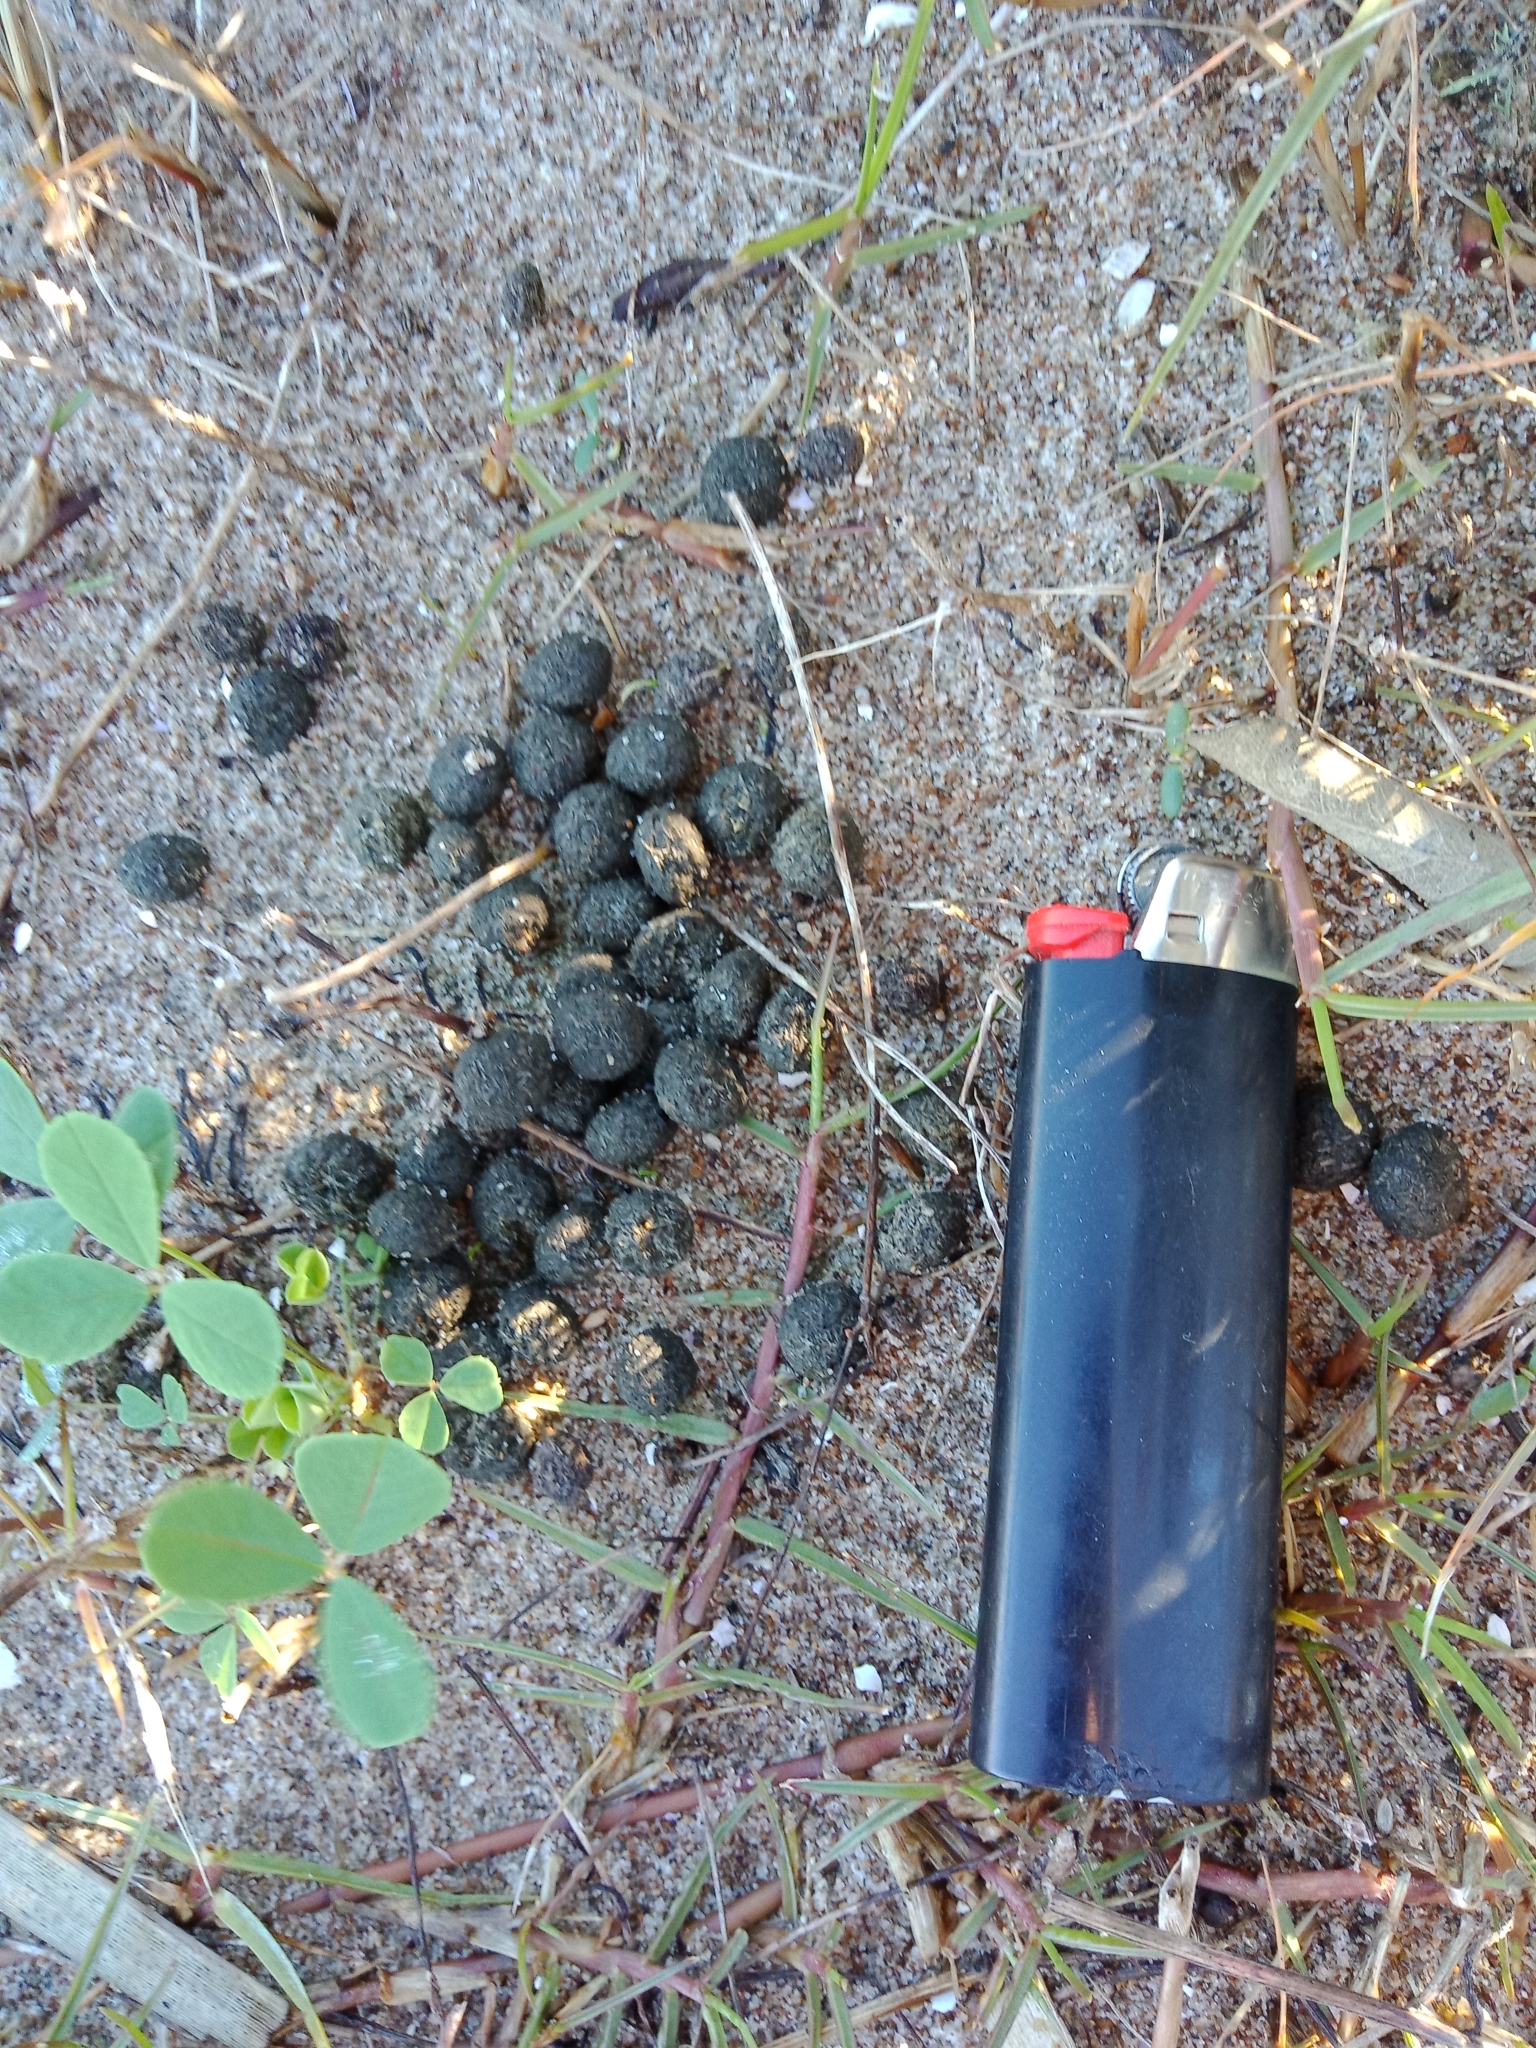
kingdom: Animalia
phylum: Chordata
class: Mammalia
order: Lagomorpha
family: Leporidae
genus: Oryctolagus
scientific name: Oryctolagus cuniculus
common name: European rabbit
